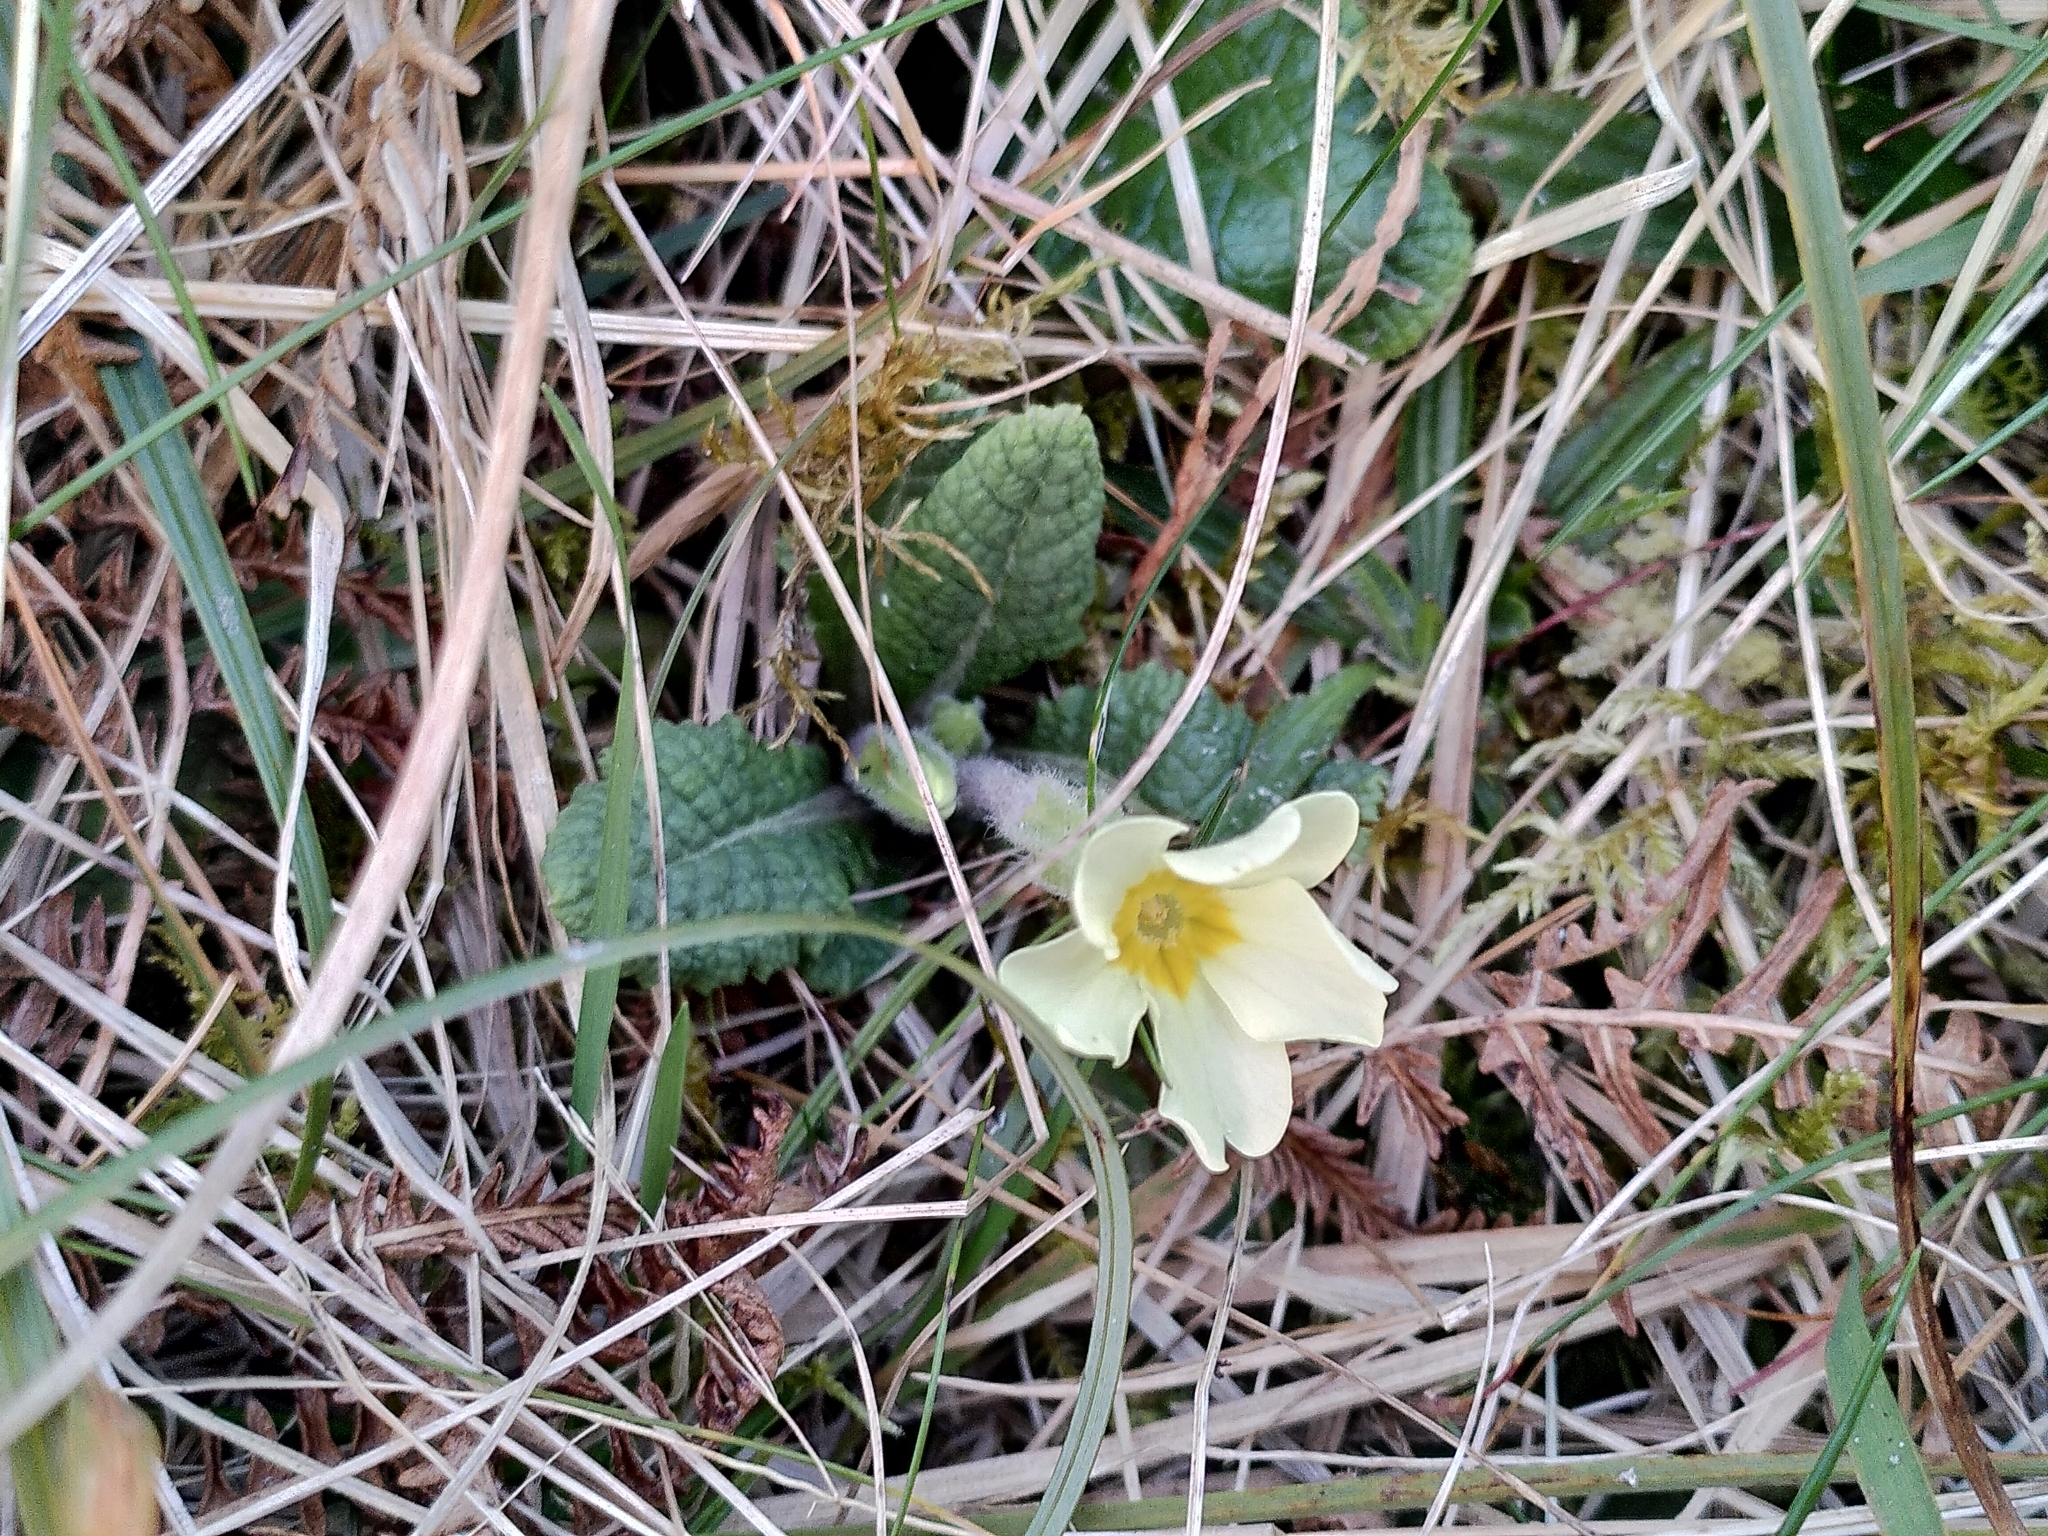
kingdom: Plantae
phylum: Tracheophyta
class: Magnoliopsida
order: Ericales
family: Primulaceae
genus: Primula
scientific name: Primula vulgaris
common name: Primrose
